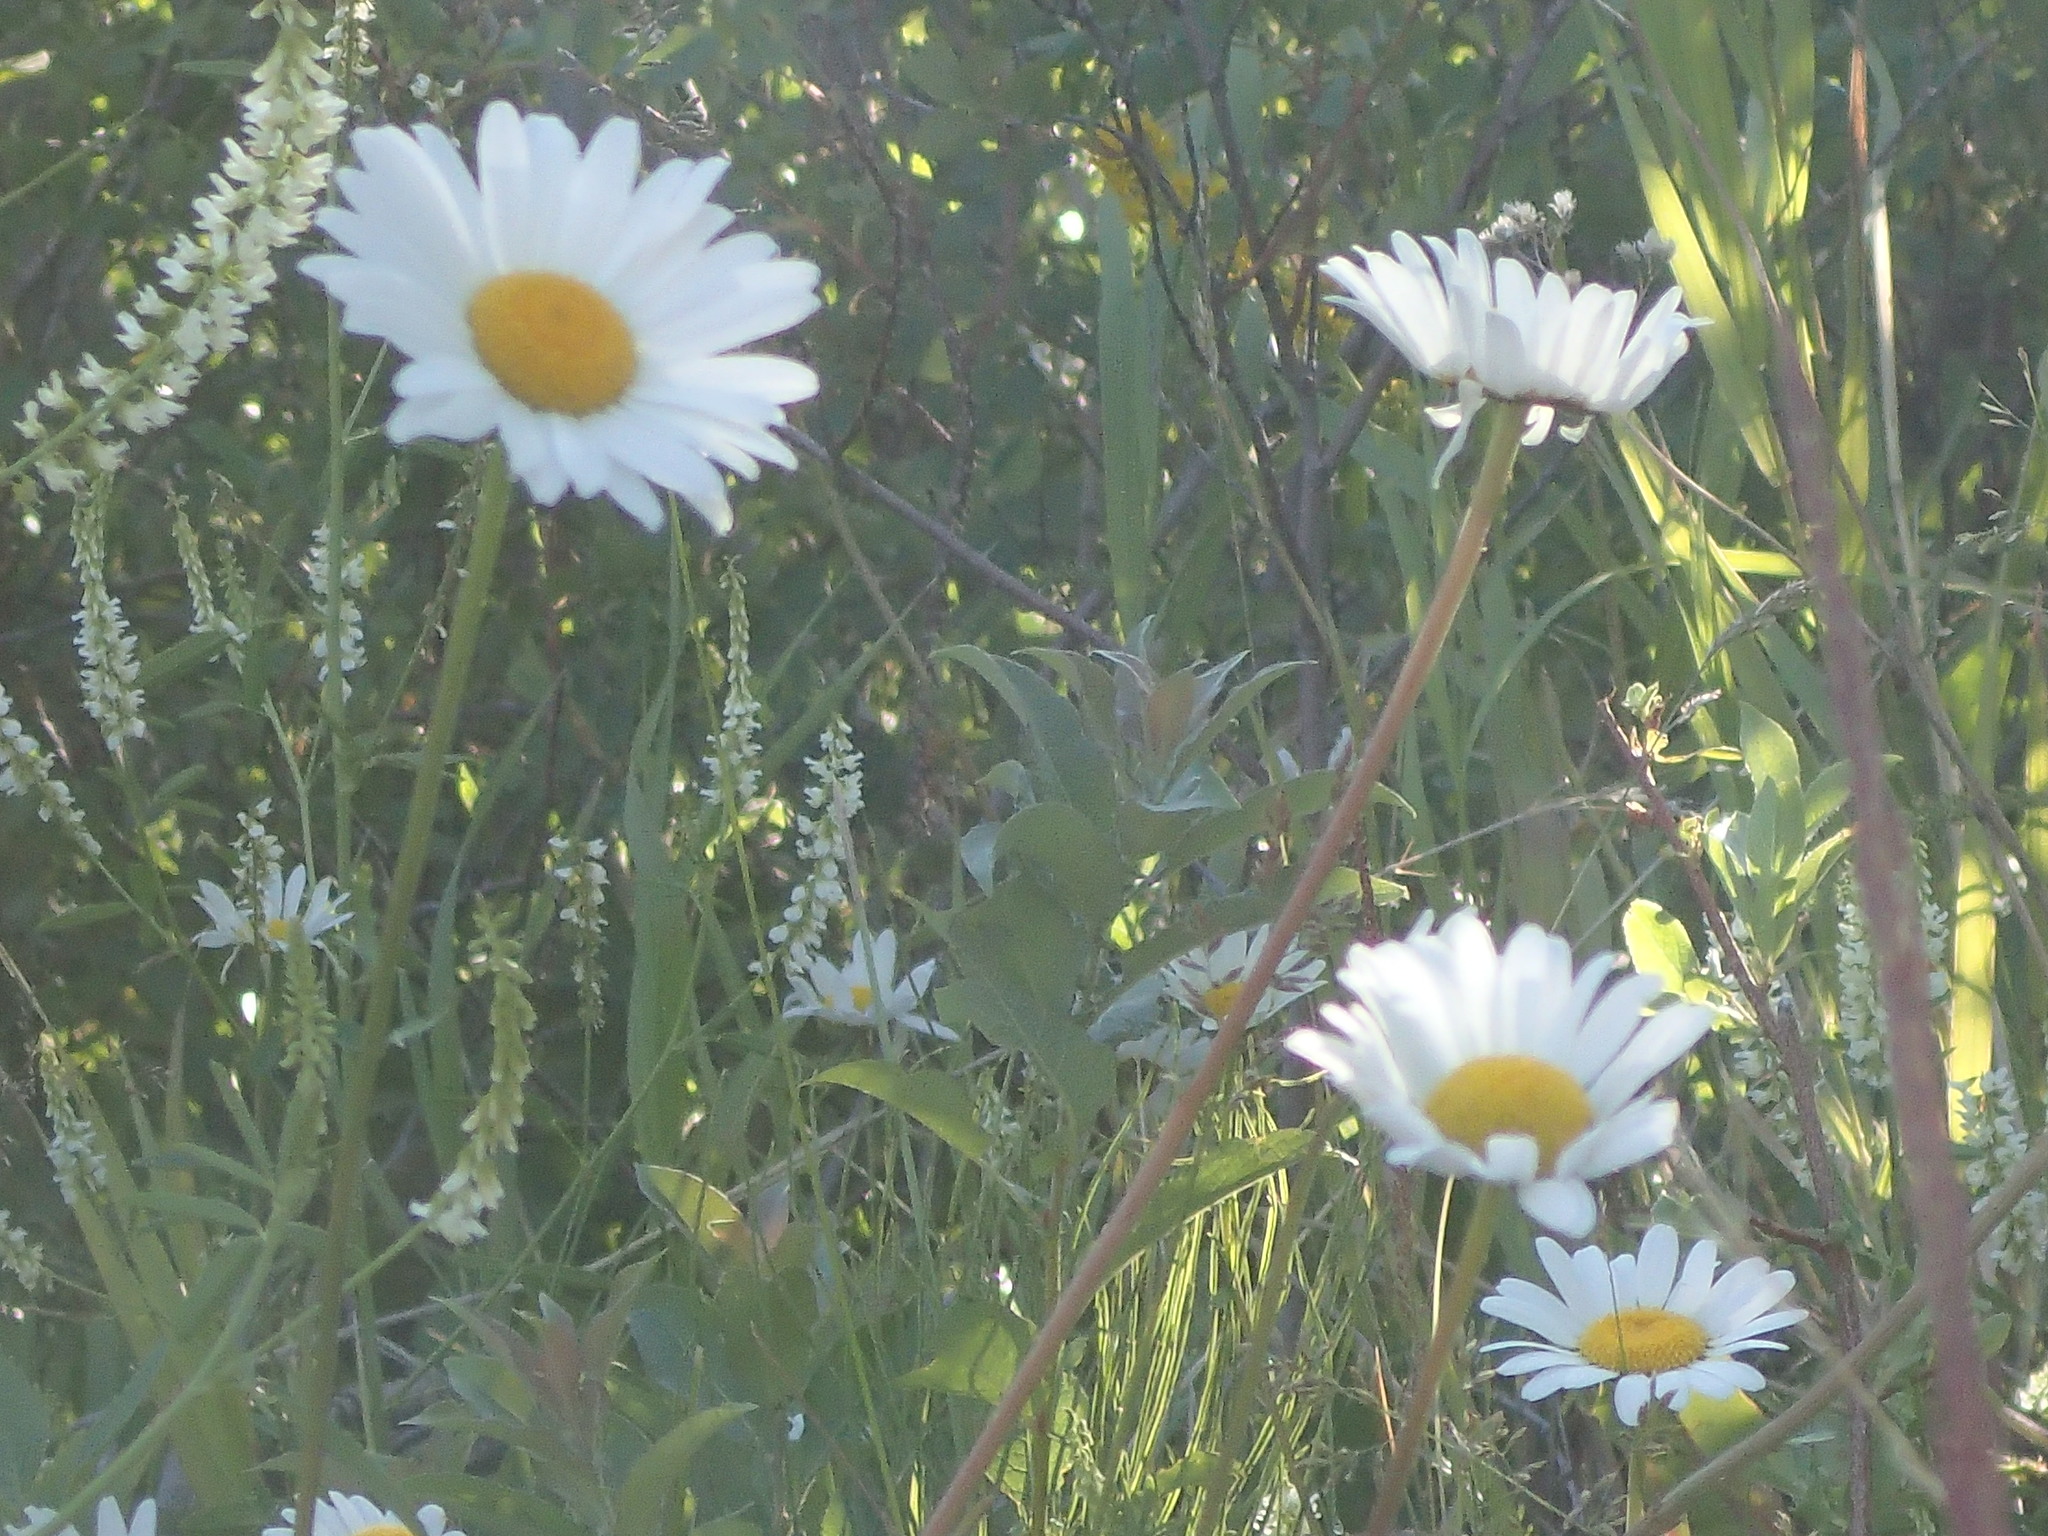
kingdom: Plantae
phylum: Tracheophyta
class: Magnoliopsida
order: Asterales
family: Asteraceae
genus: Leucanthemum
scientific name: Leucanthemum vulgare
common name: Oxeye daisy
